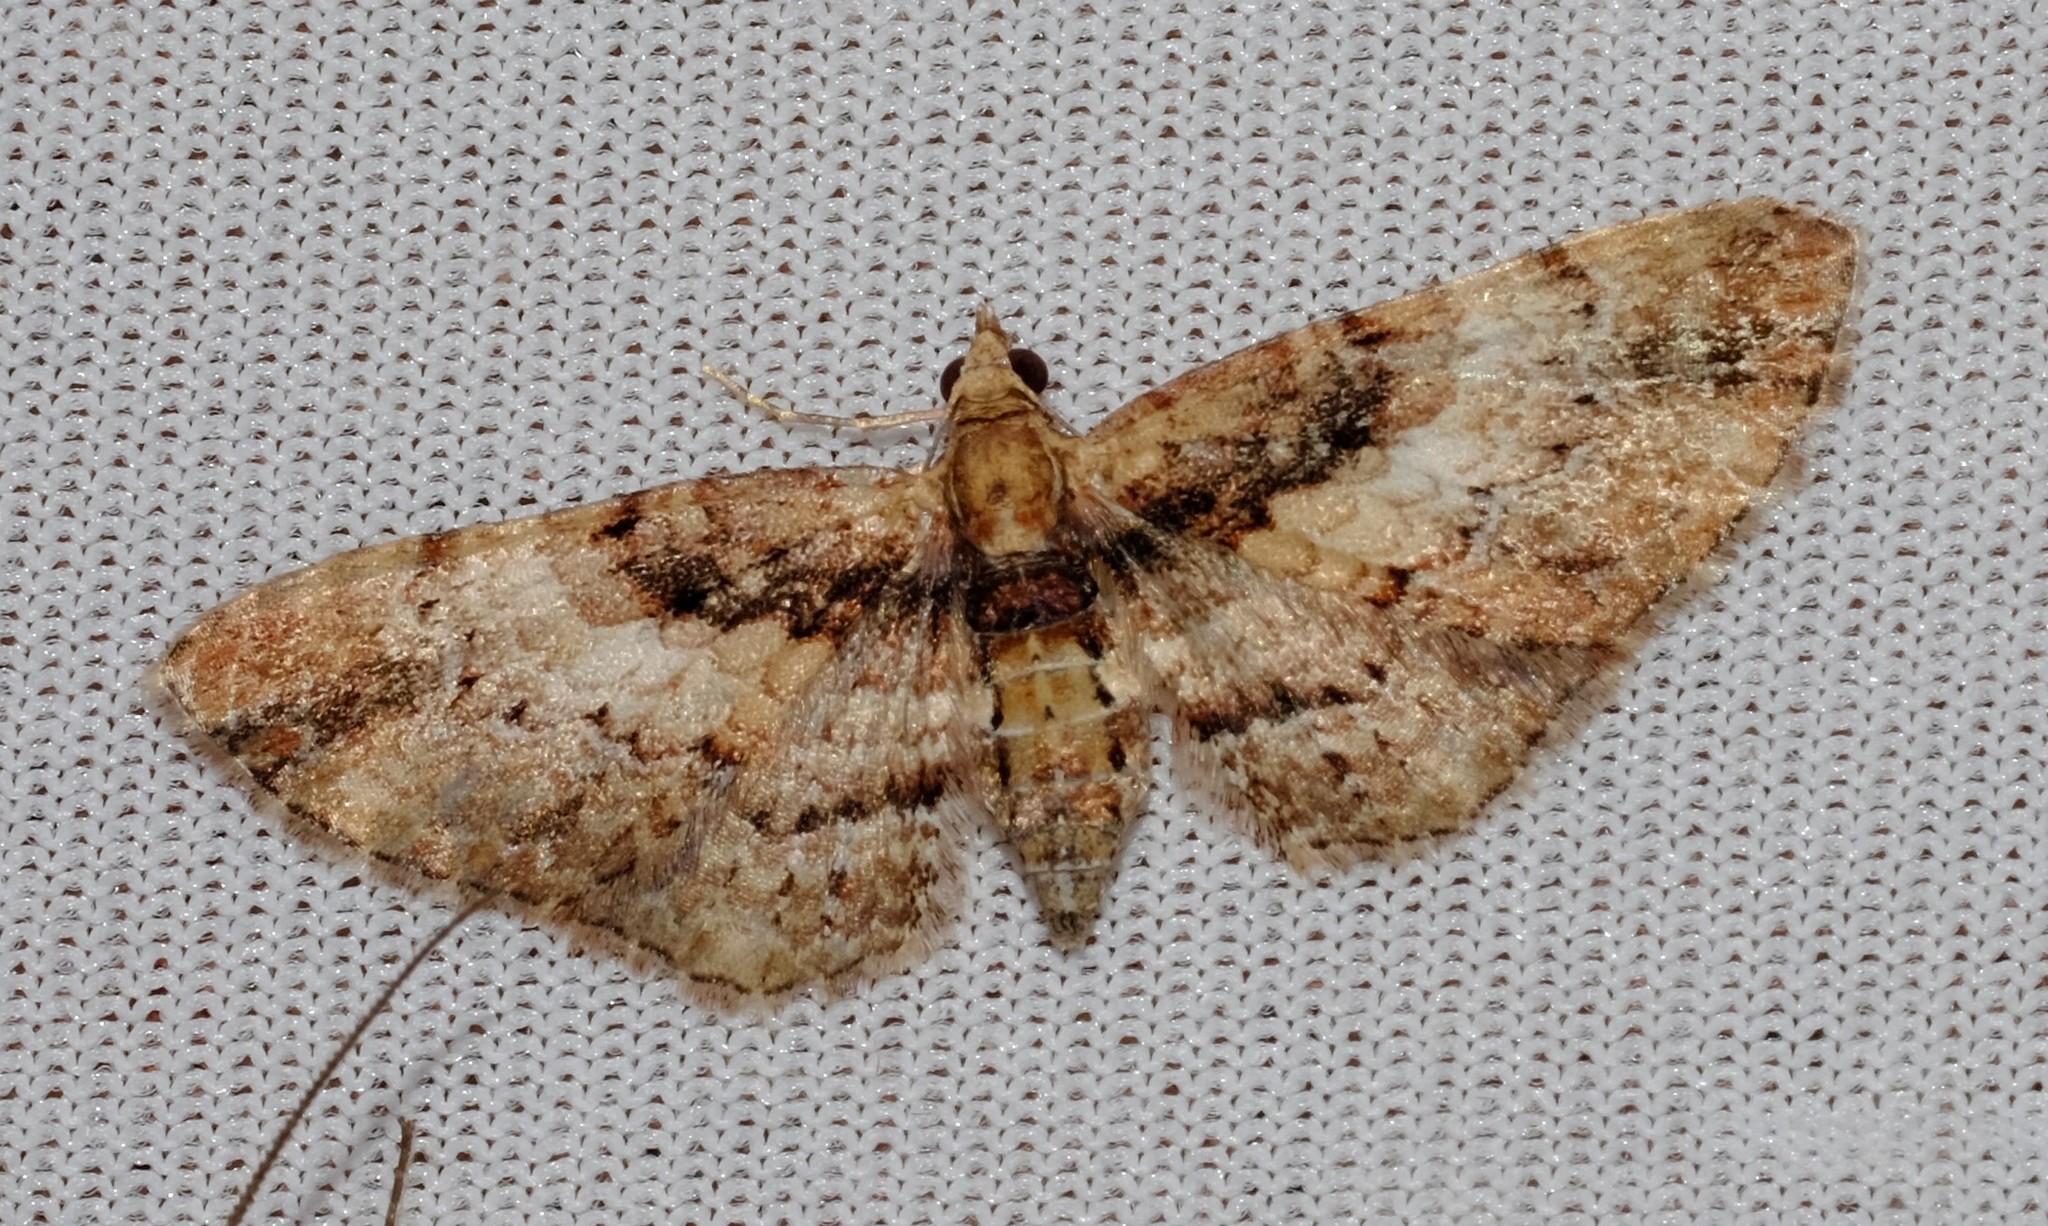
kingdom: Animalia
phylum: Arthropoda
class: Insecta
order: Lepidoptera
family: Geometridae
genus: Chloroclystis
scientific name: Chloroclystis approximata
